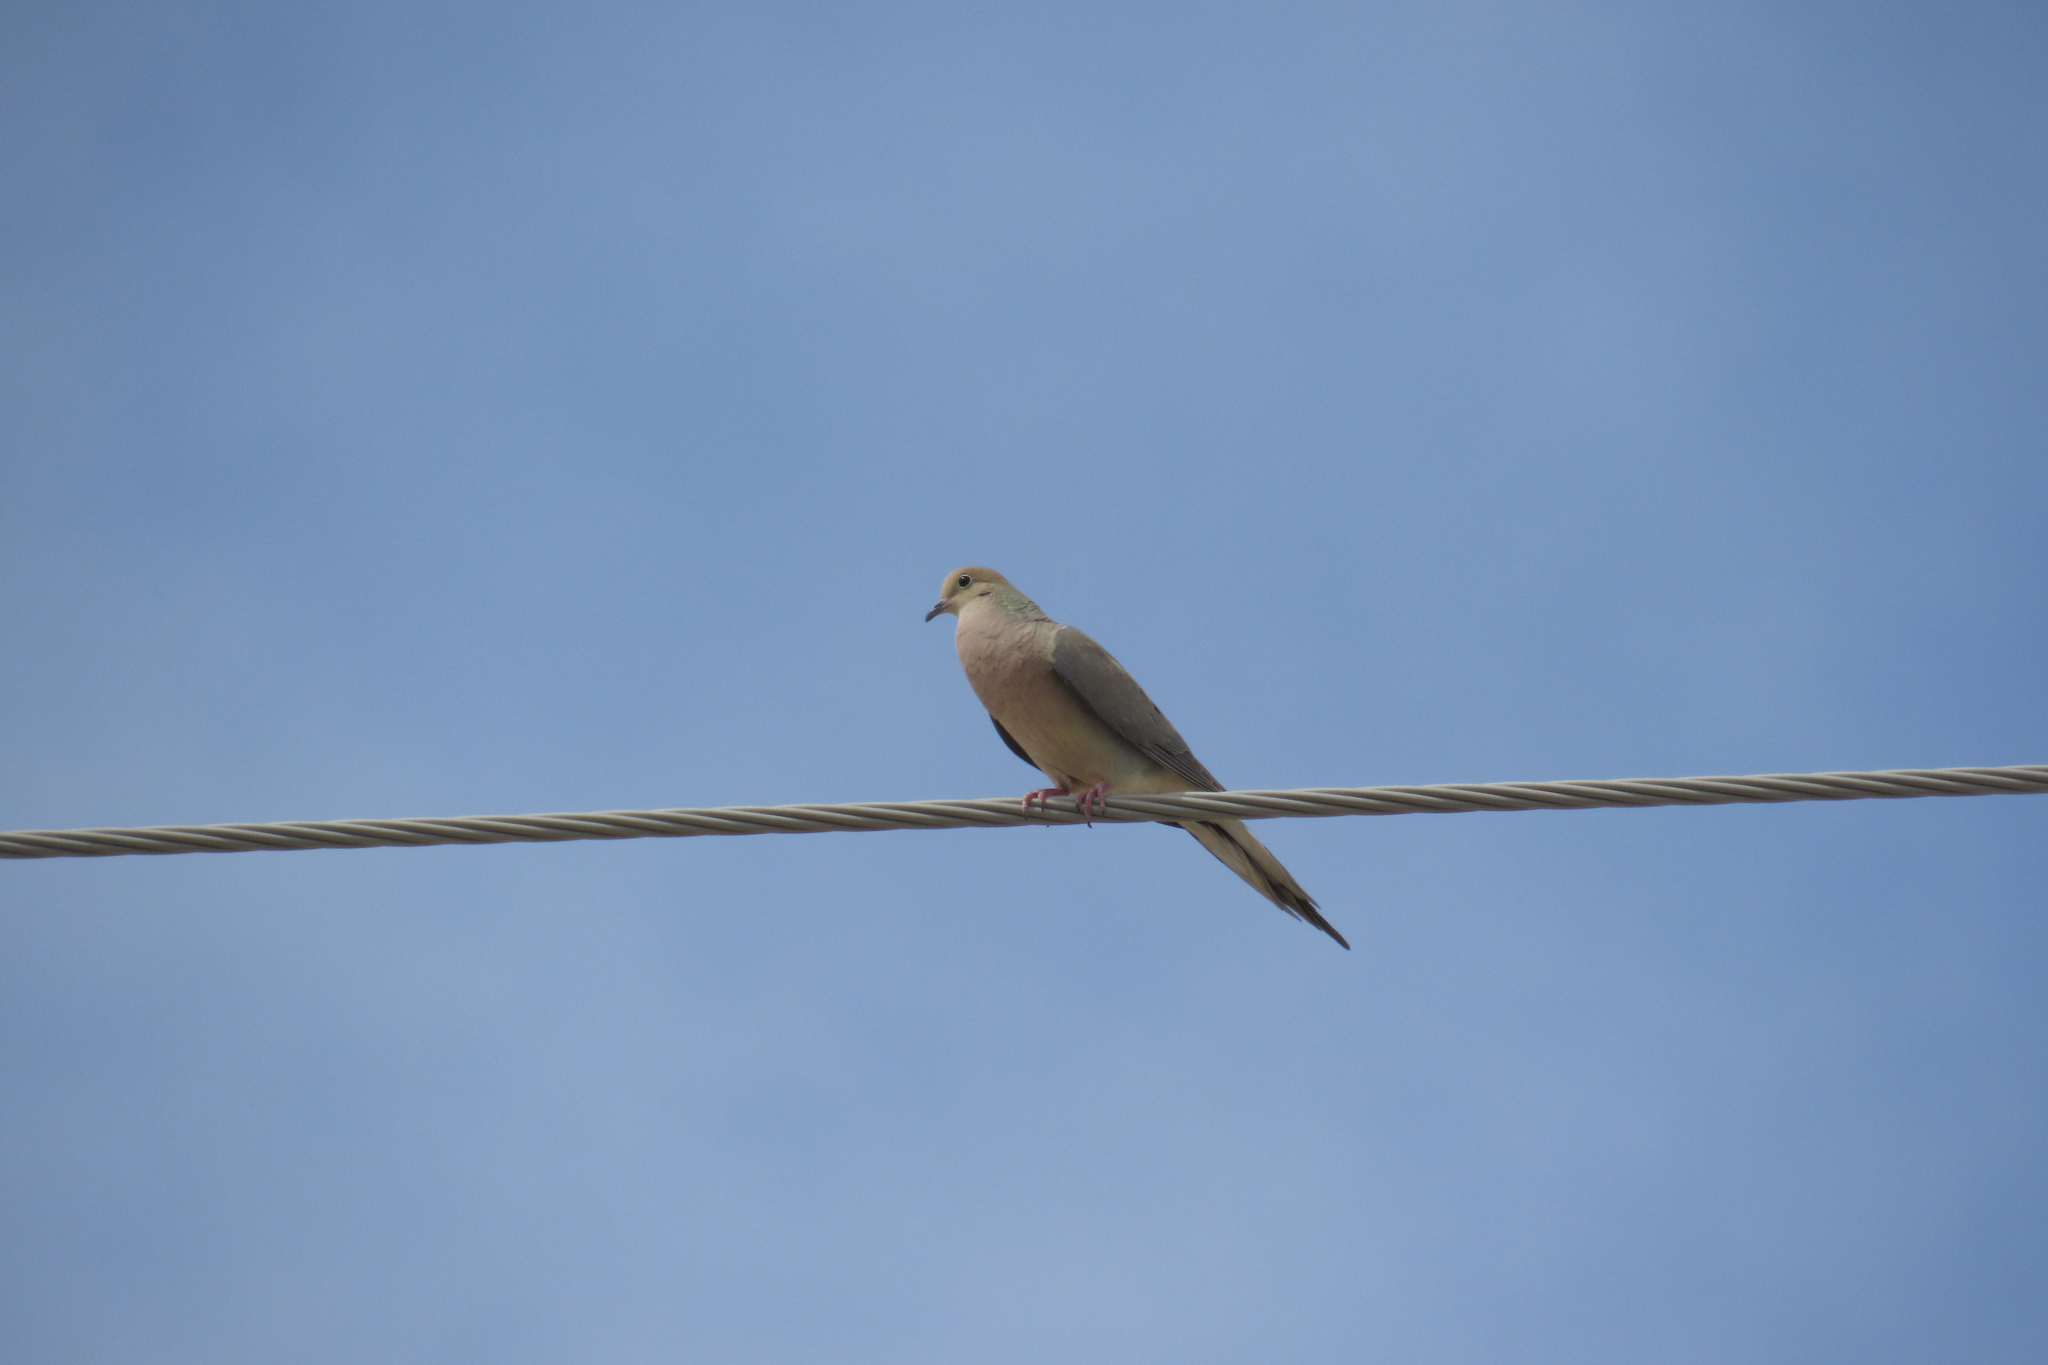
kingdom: Animalia
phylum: Chordata
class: Aves
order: Columbiformes
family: Columbidae
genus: Zenaida
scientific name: Zenaida macroura
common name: Mourning dove
